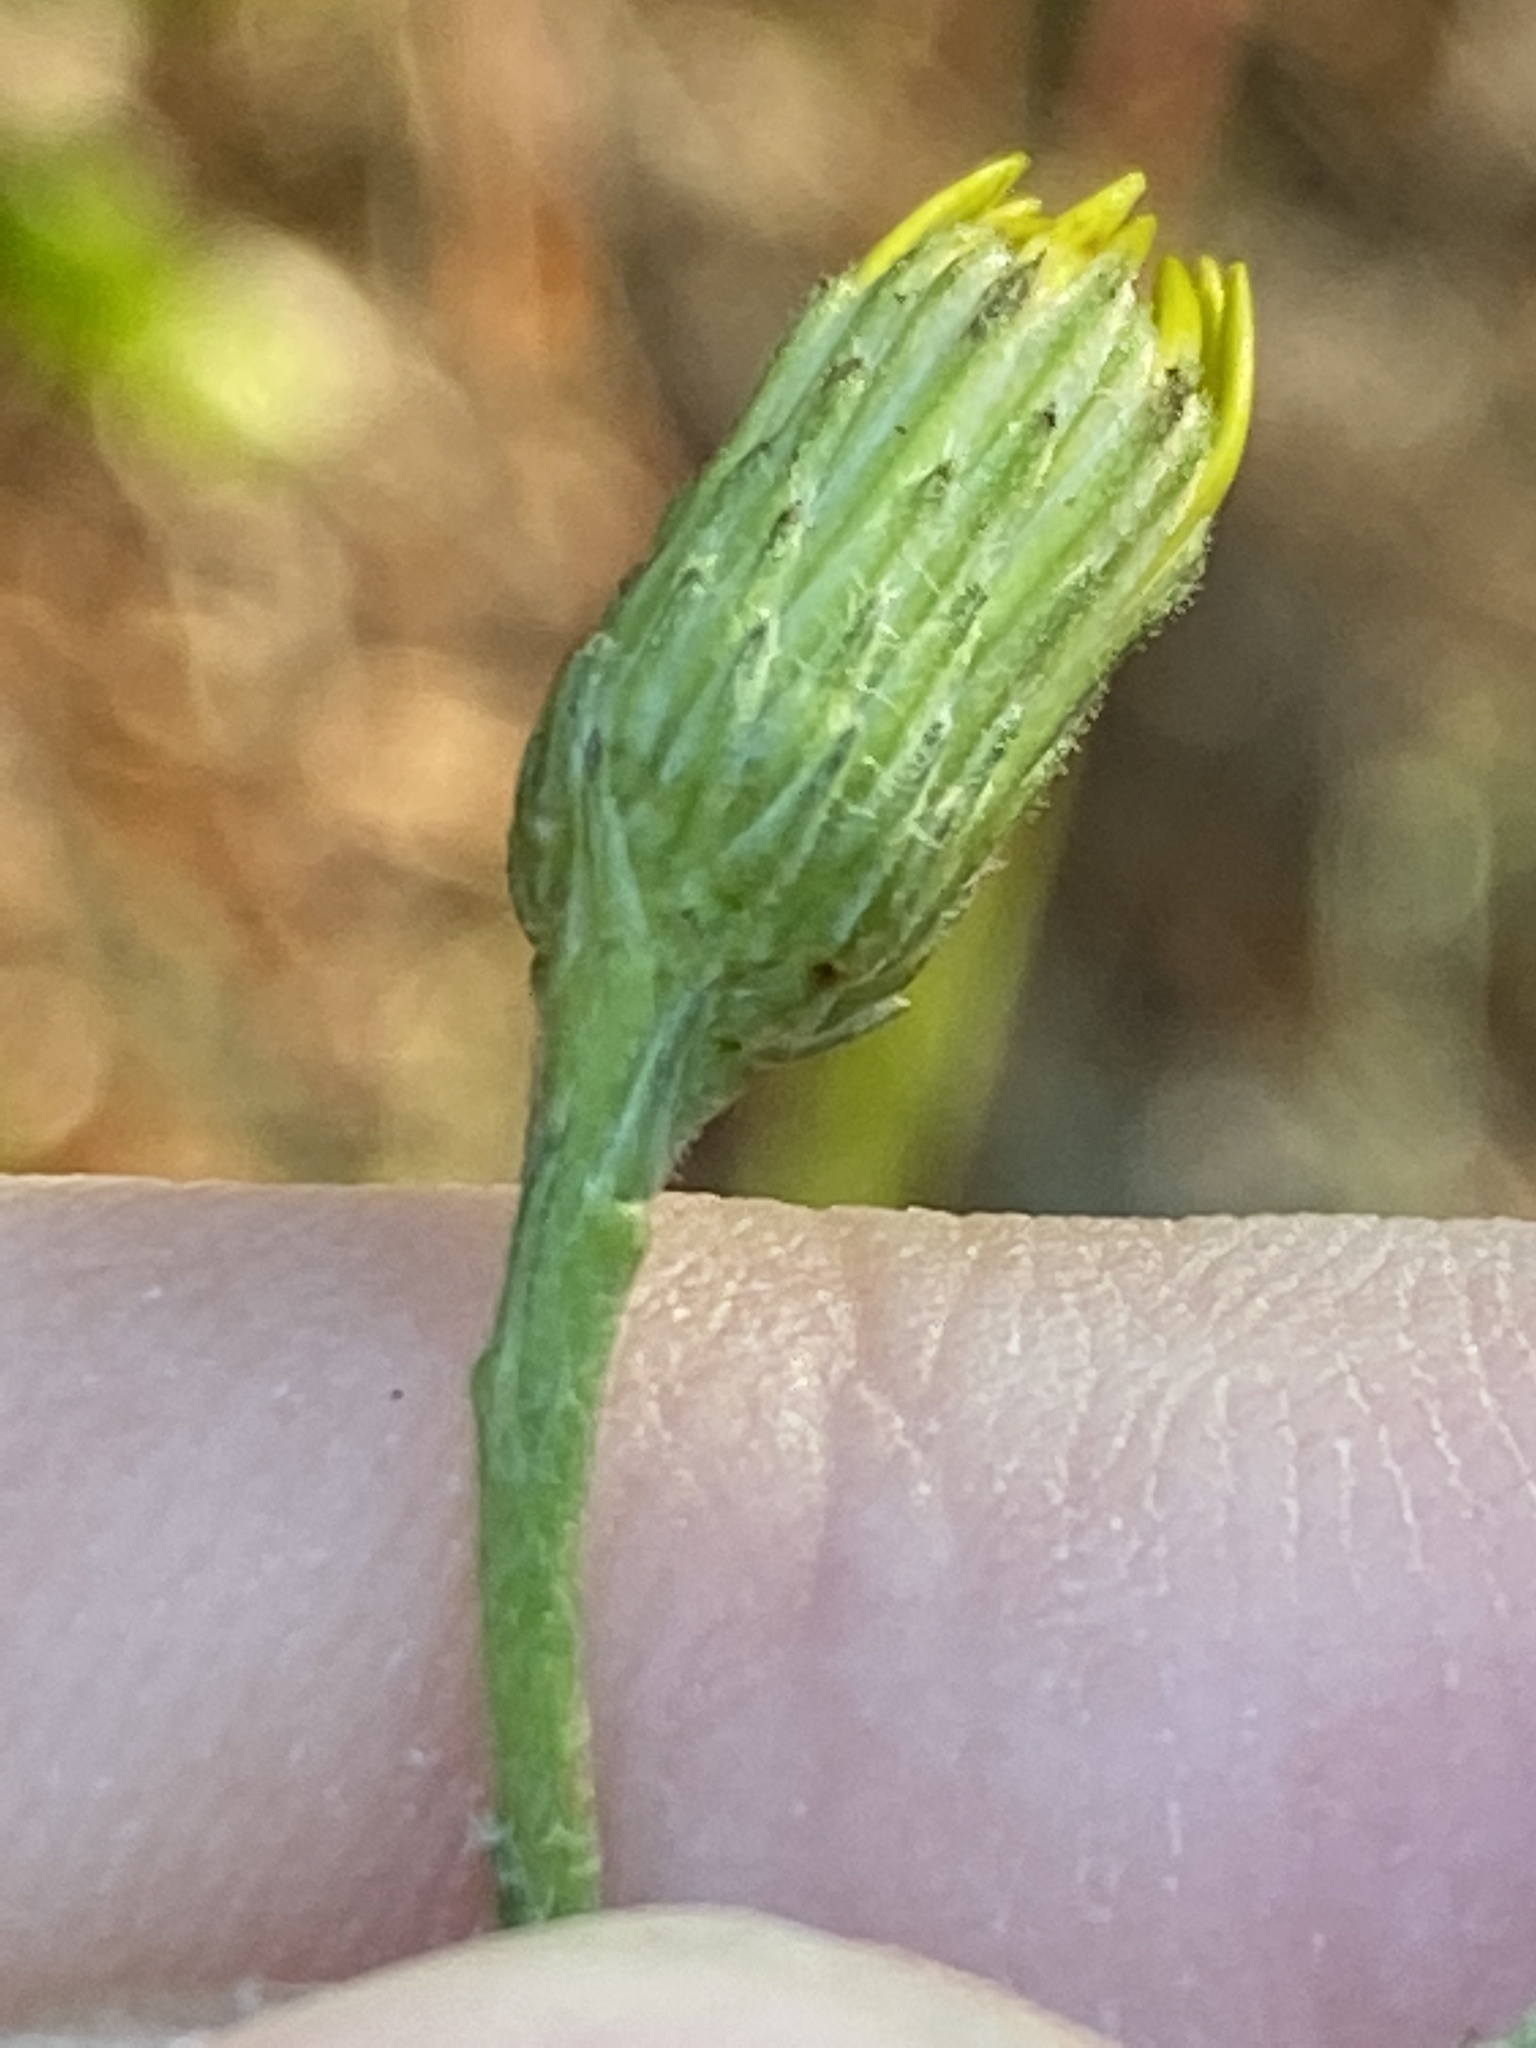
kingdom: Plantae
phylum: Tracheophyta
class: Magnoliopsida
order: Asterales
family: Asteraceae
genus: Pityopsis
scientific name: Pityopsis latifolia
